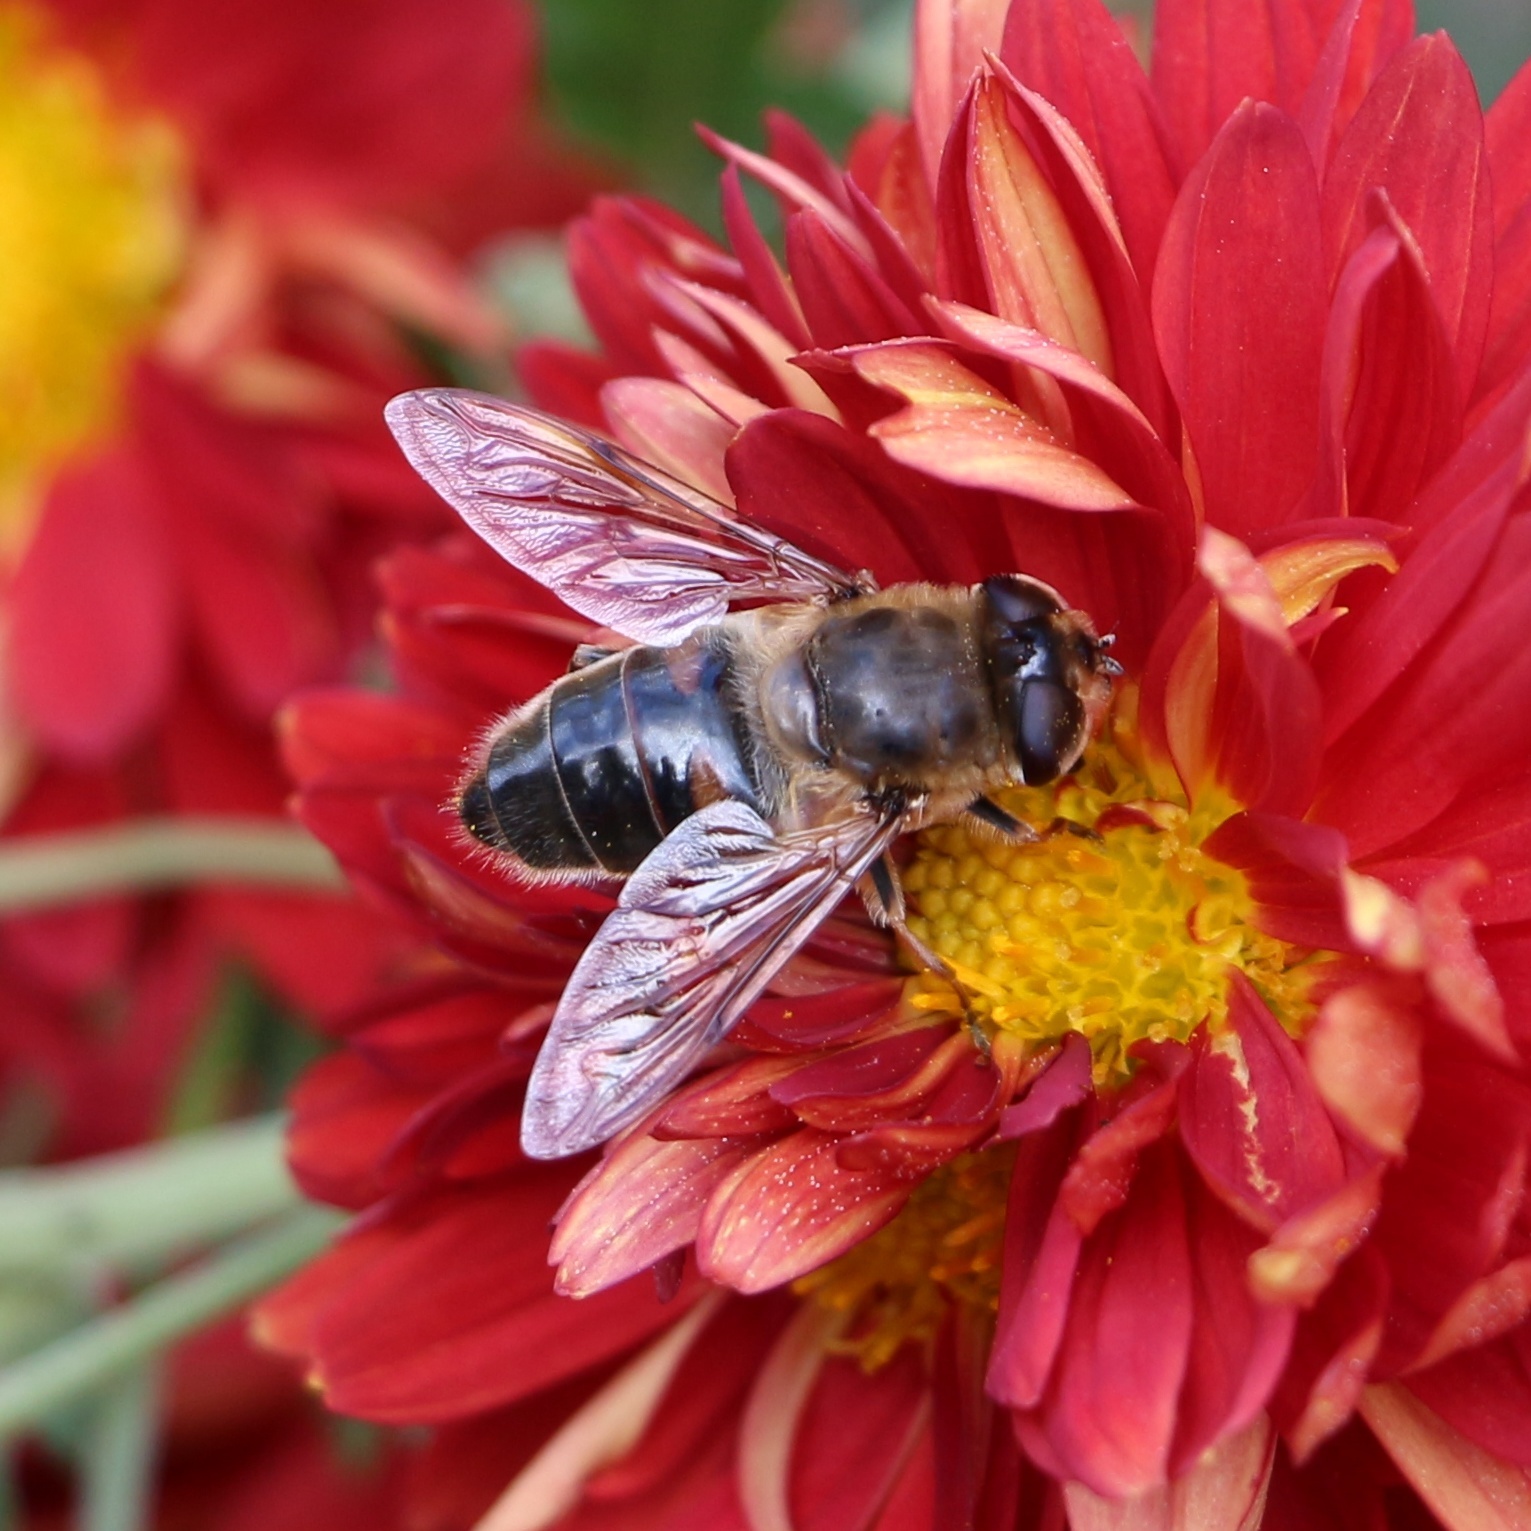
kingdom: Animalia
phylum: Arthropoda
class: Insecta
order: Diptera
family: Syrphidae
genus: Eristalis
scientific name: Eristalis tenax
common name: Drone fly
